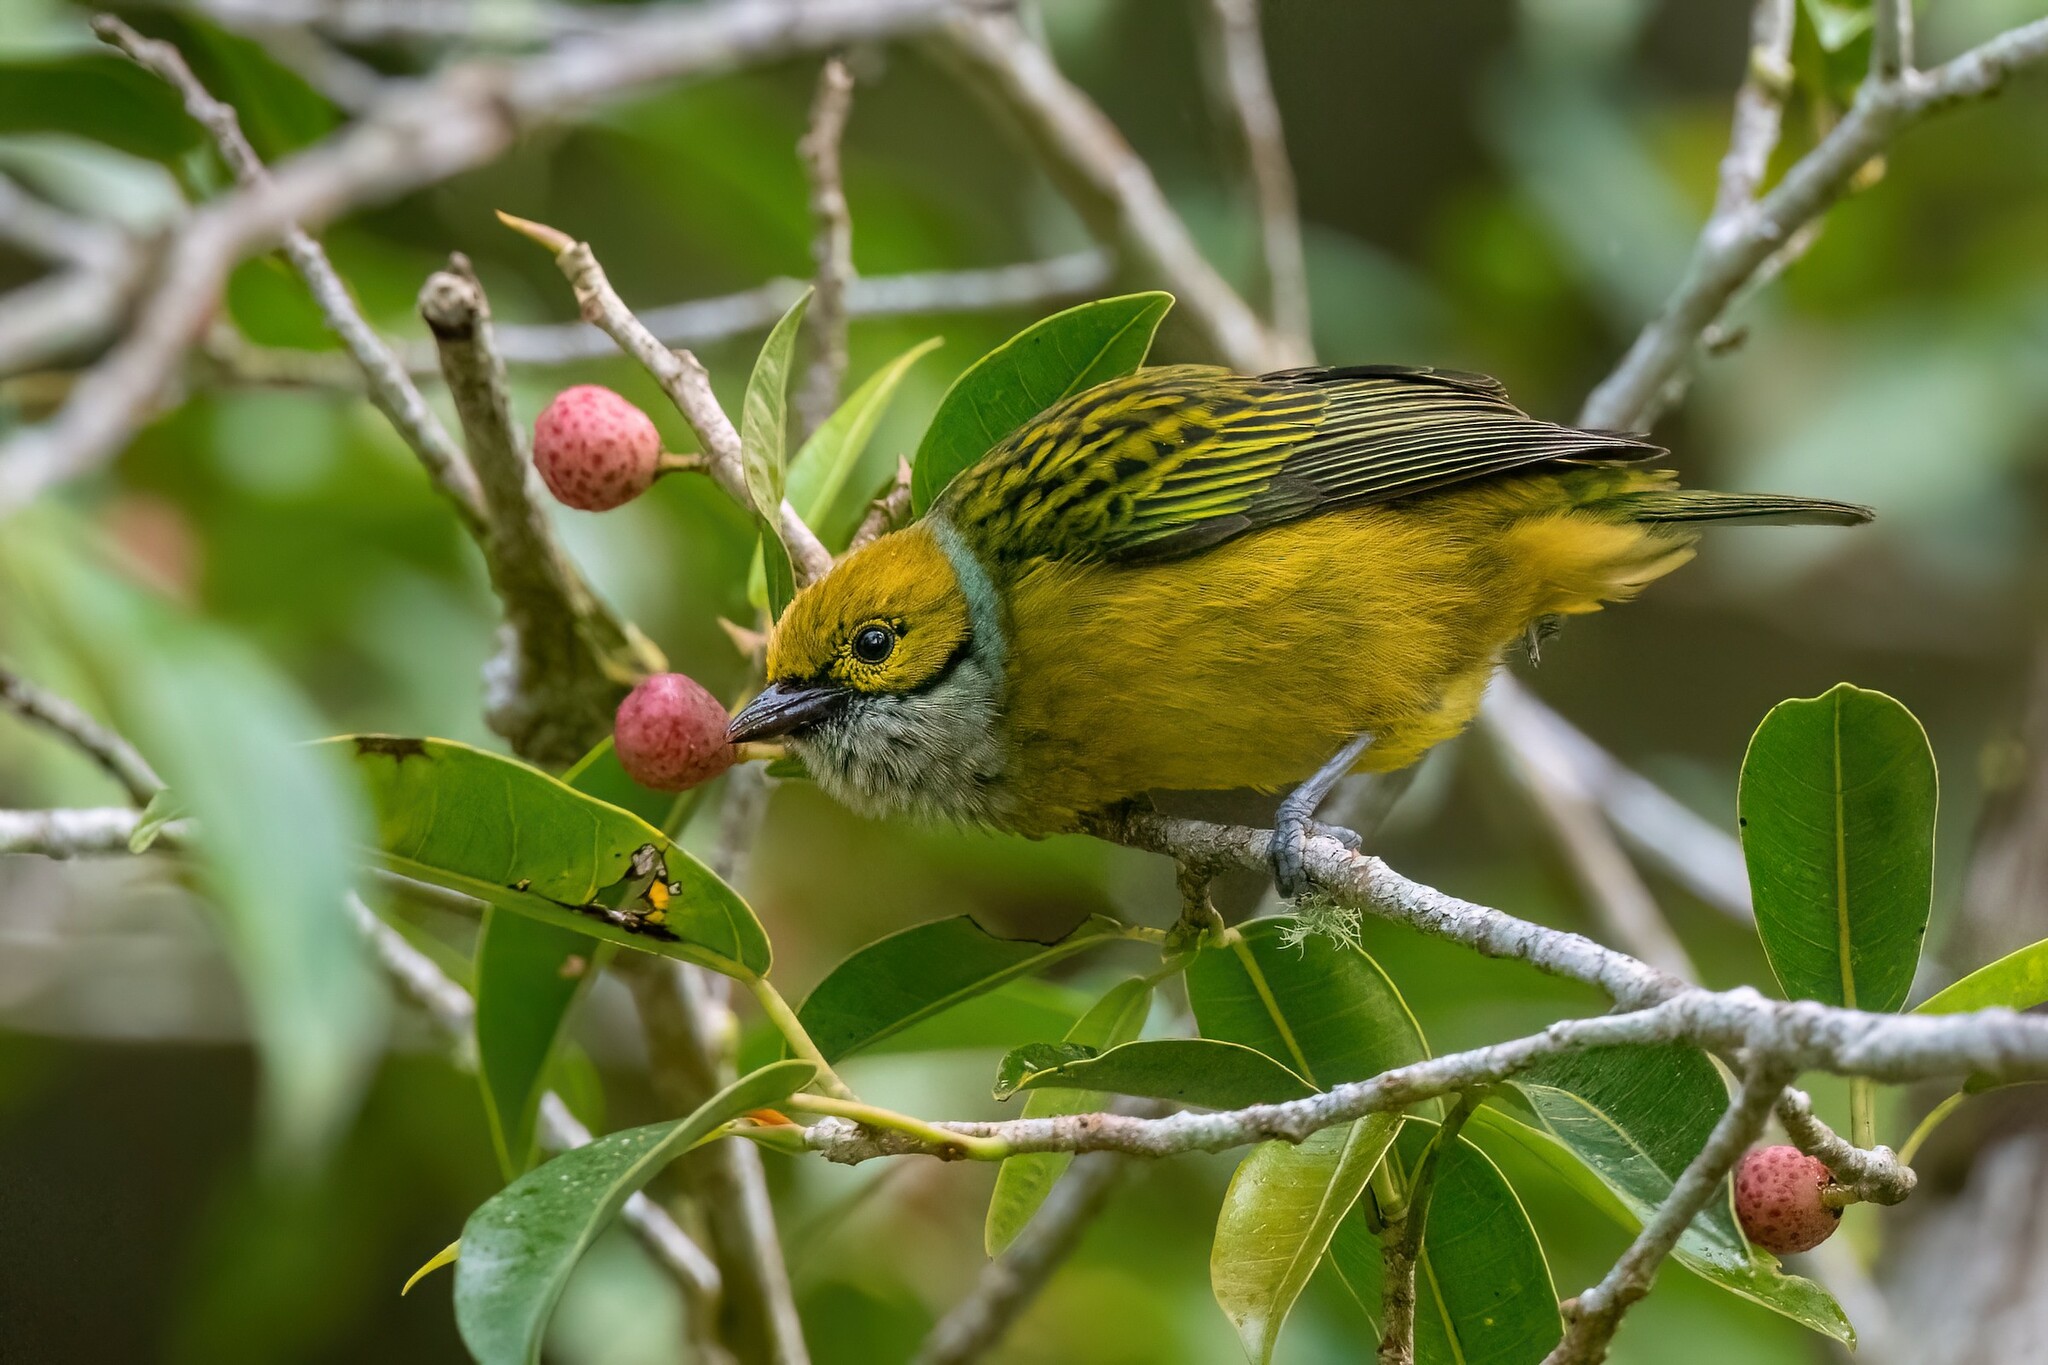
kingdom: Animalia
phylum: Chordata
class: Aves
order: Passeriformes
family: Thraupidae
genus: Tangara
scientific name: Tangara icterocephala
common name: Silver-throated tanager
